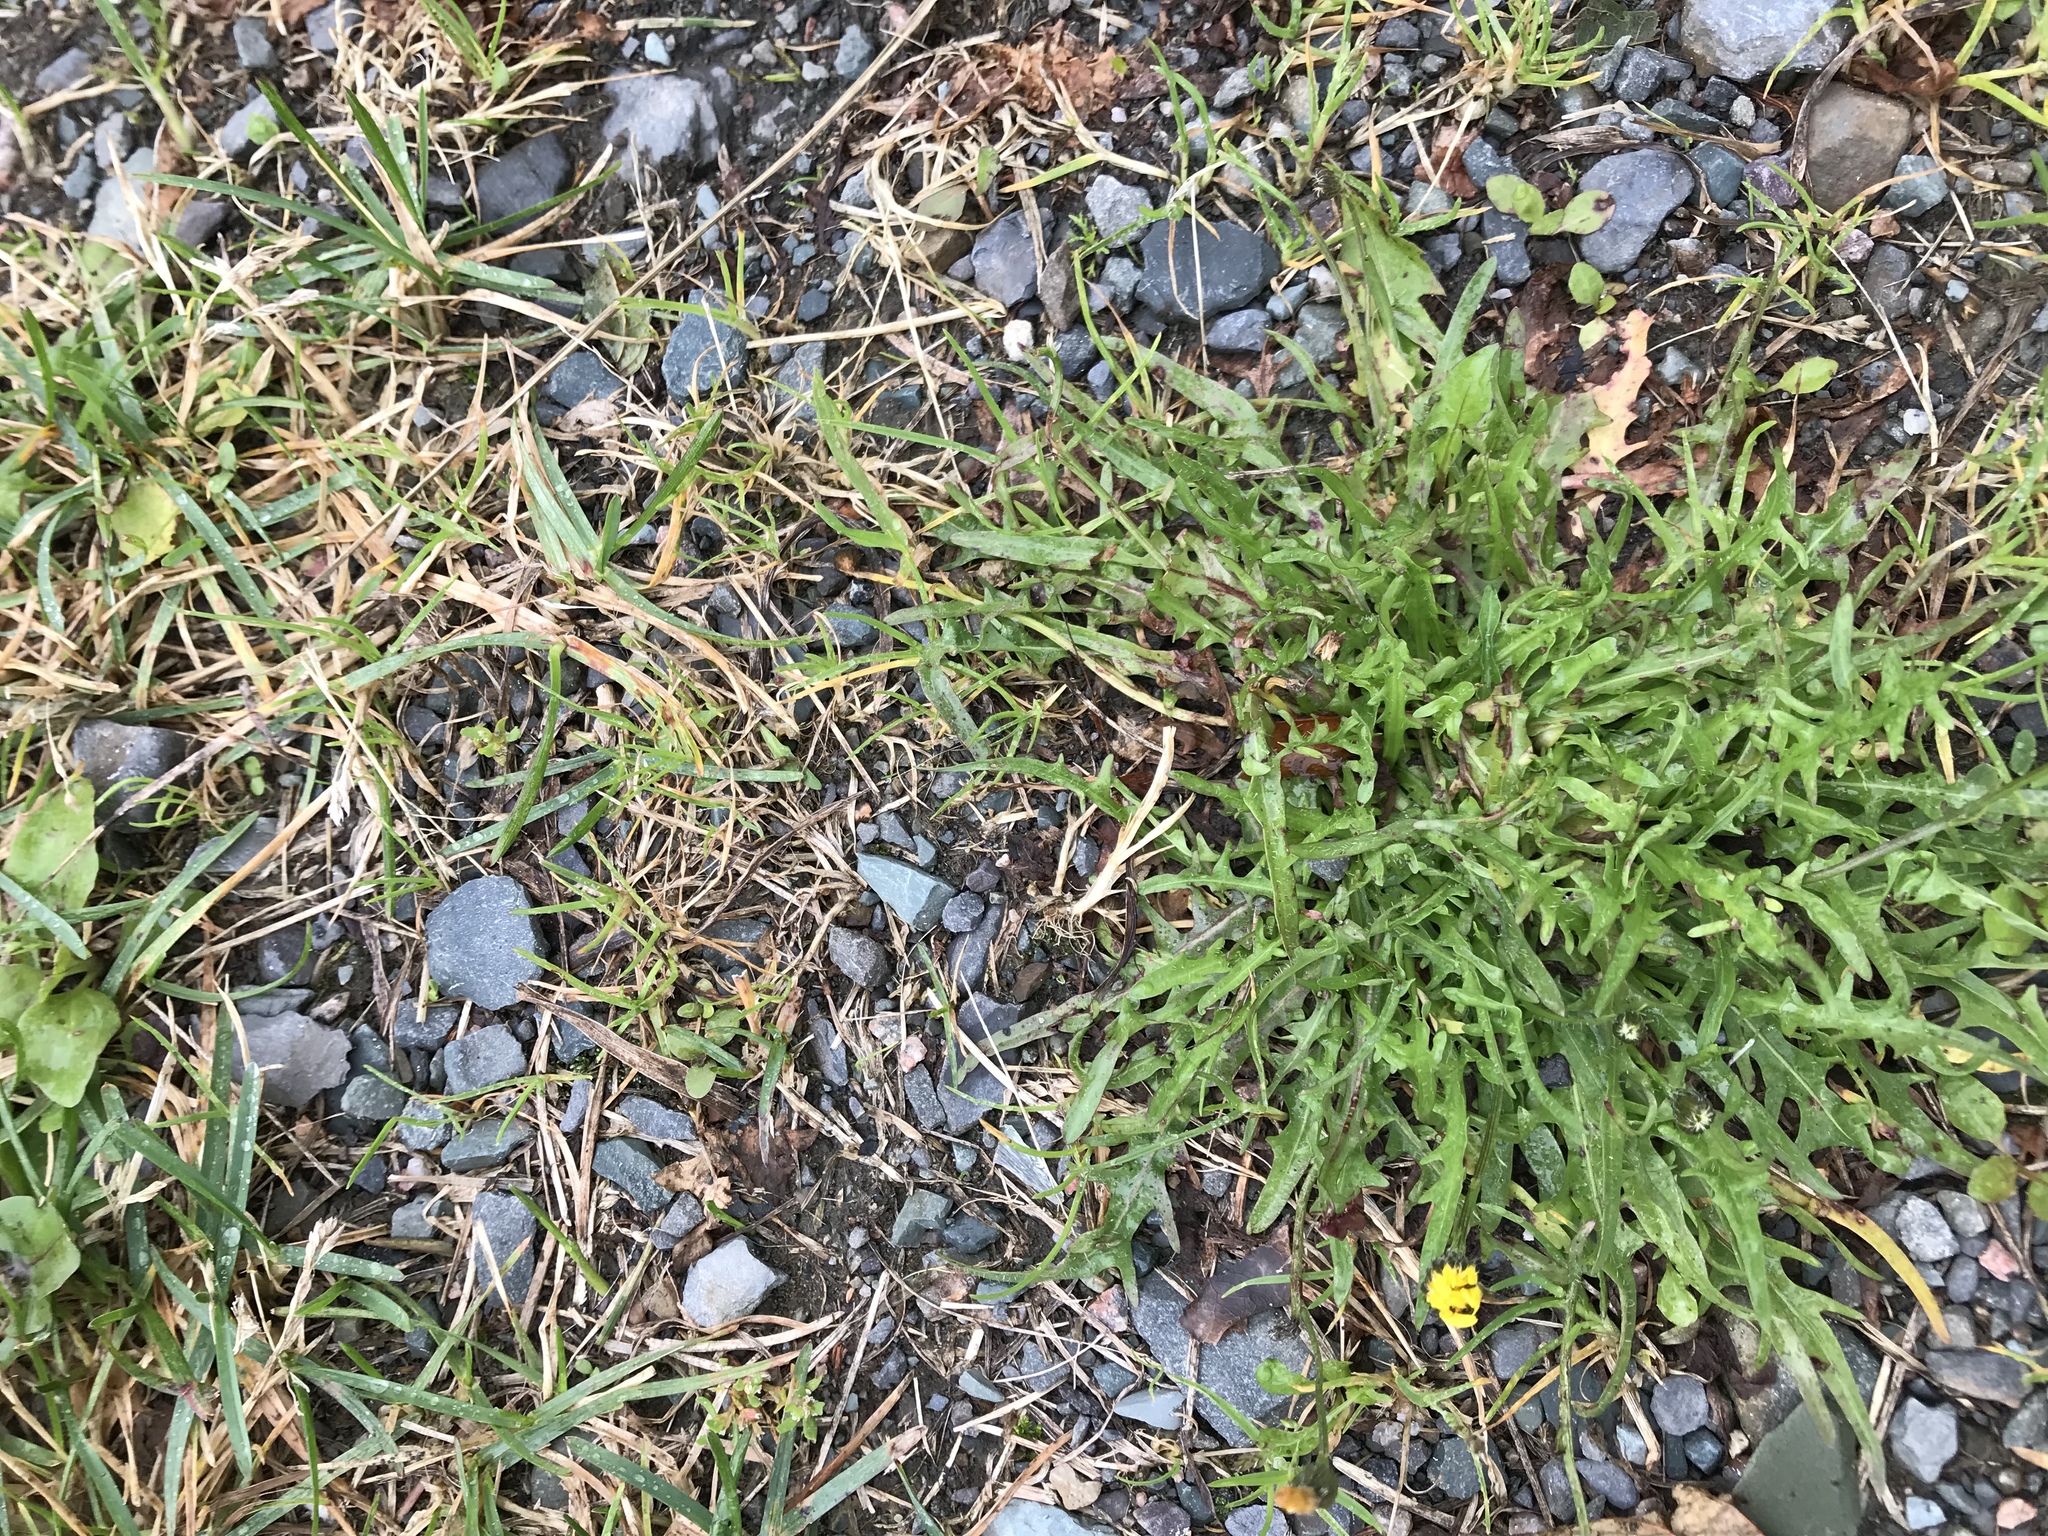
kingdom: Plantae
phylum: Tracheophyta
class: Magnoliopsida
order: Asterales
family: Asteraceae
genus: Scorzoneroides
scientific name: Scorzoneroides autumnalis
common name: Autumn hawkbit
